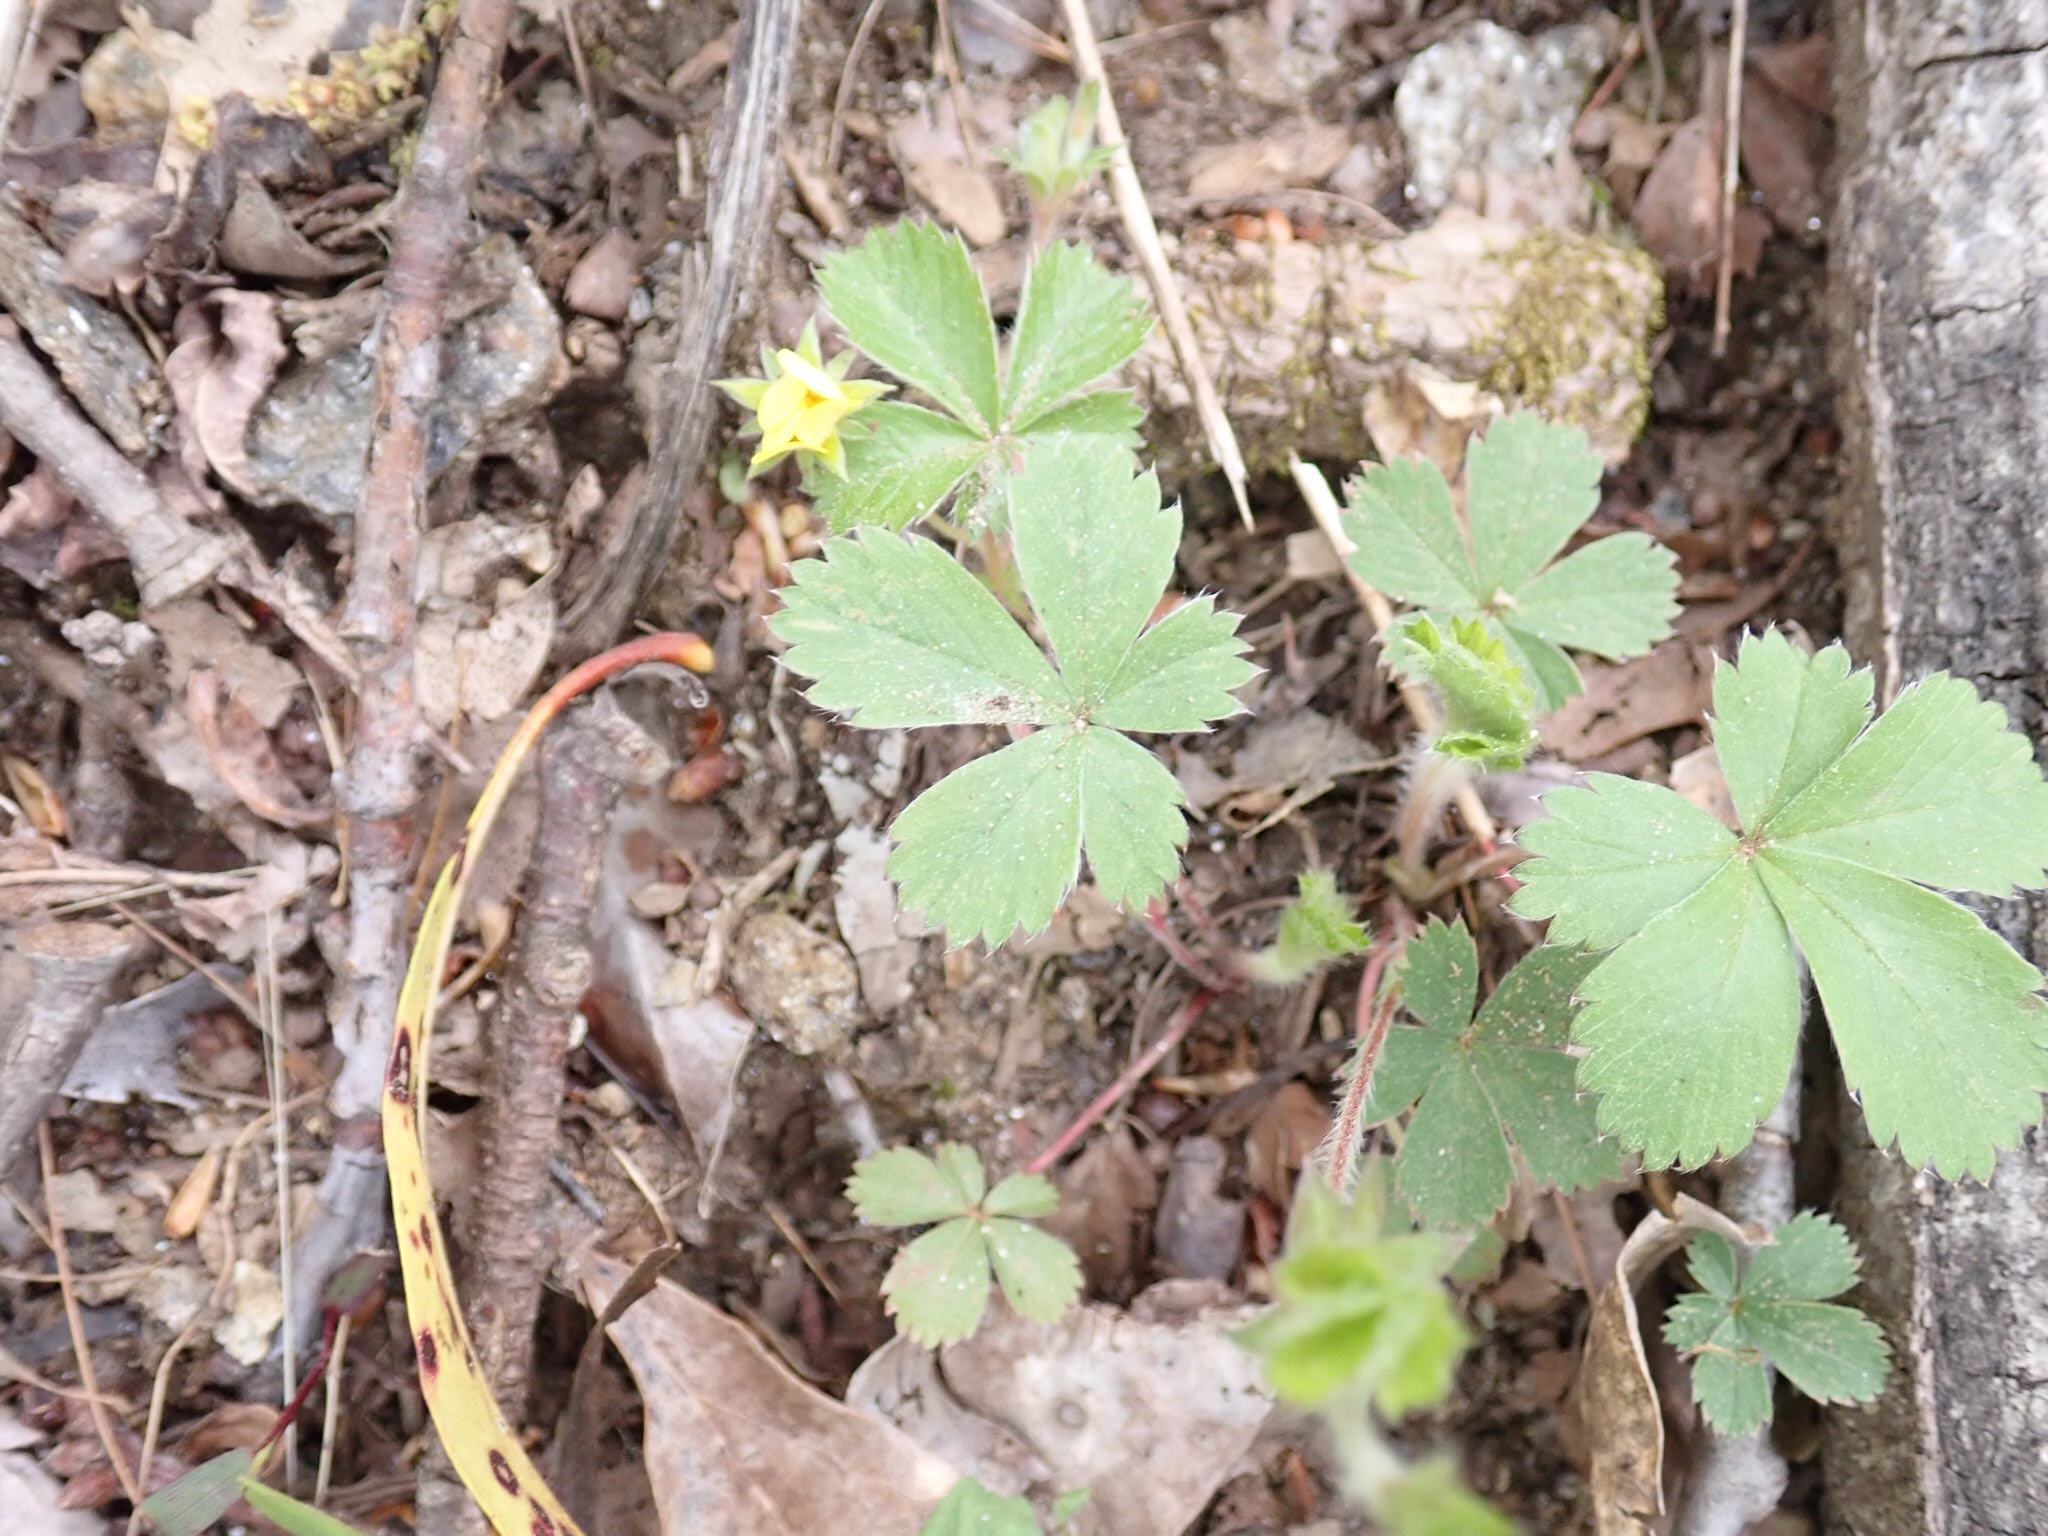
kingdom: Plantae
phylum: Tracheophyta
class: Magnoliopsida
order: Rosales
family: Rosaceae
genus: Potentilla
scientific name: Potentilla indica
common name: Yellow-flowered strawberry
